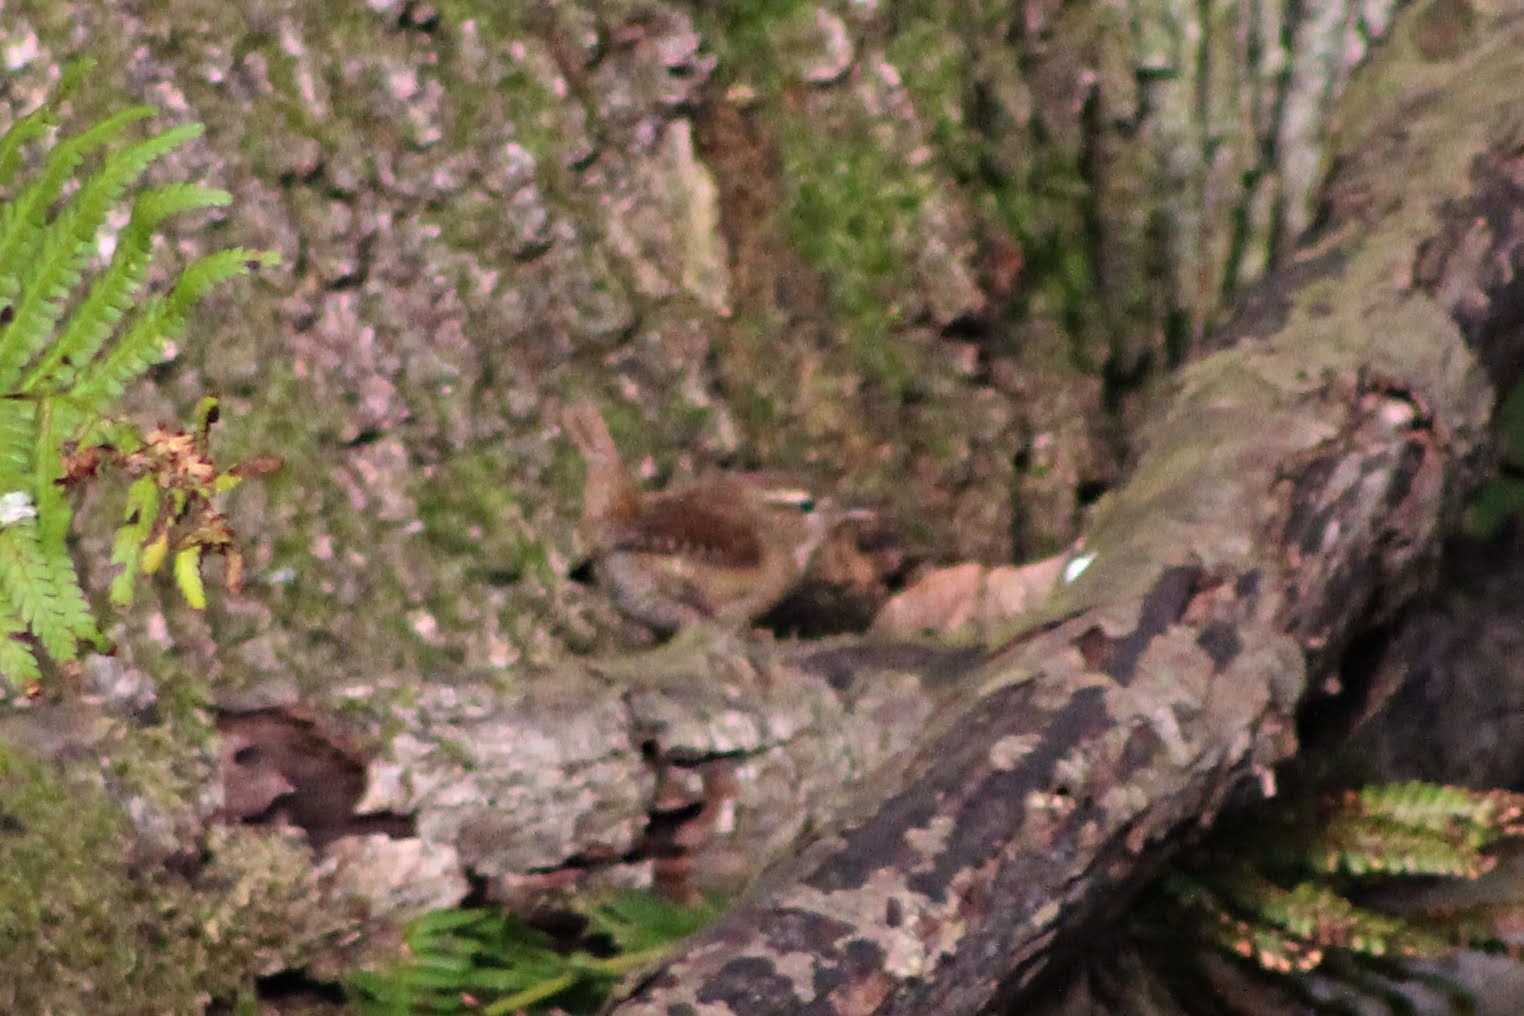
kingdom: Animalia
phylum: Chordata
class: Aves
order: Passeriformes
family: Troglodytidae
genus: Troglodytes
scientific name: Troglodytes troglodytes
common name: Eurasian wren
